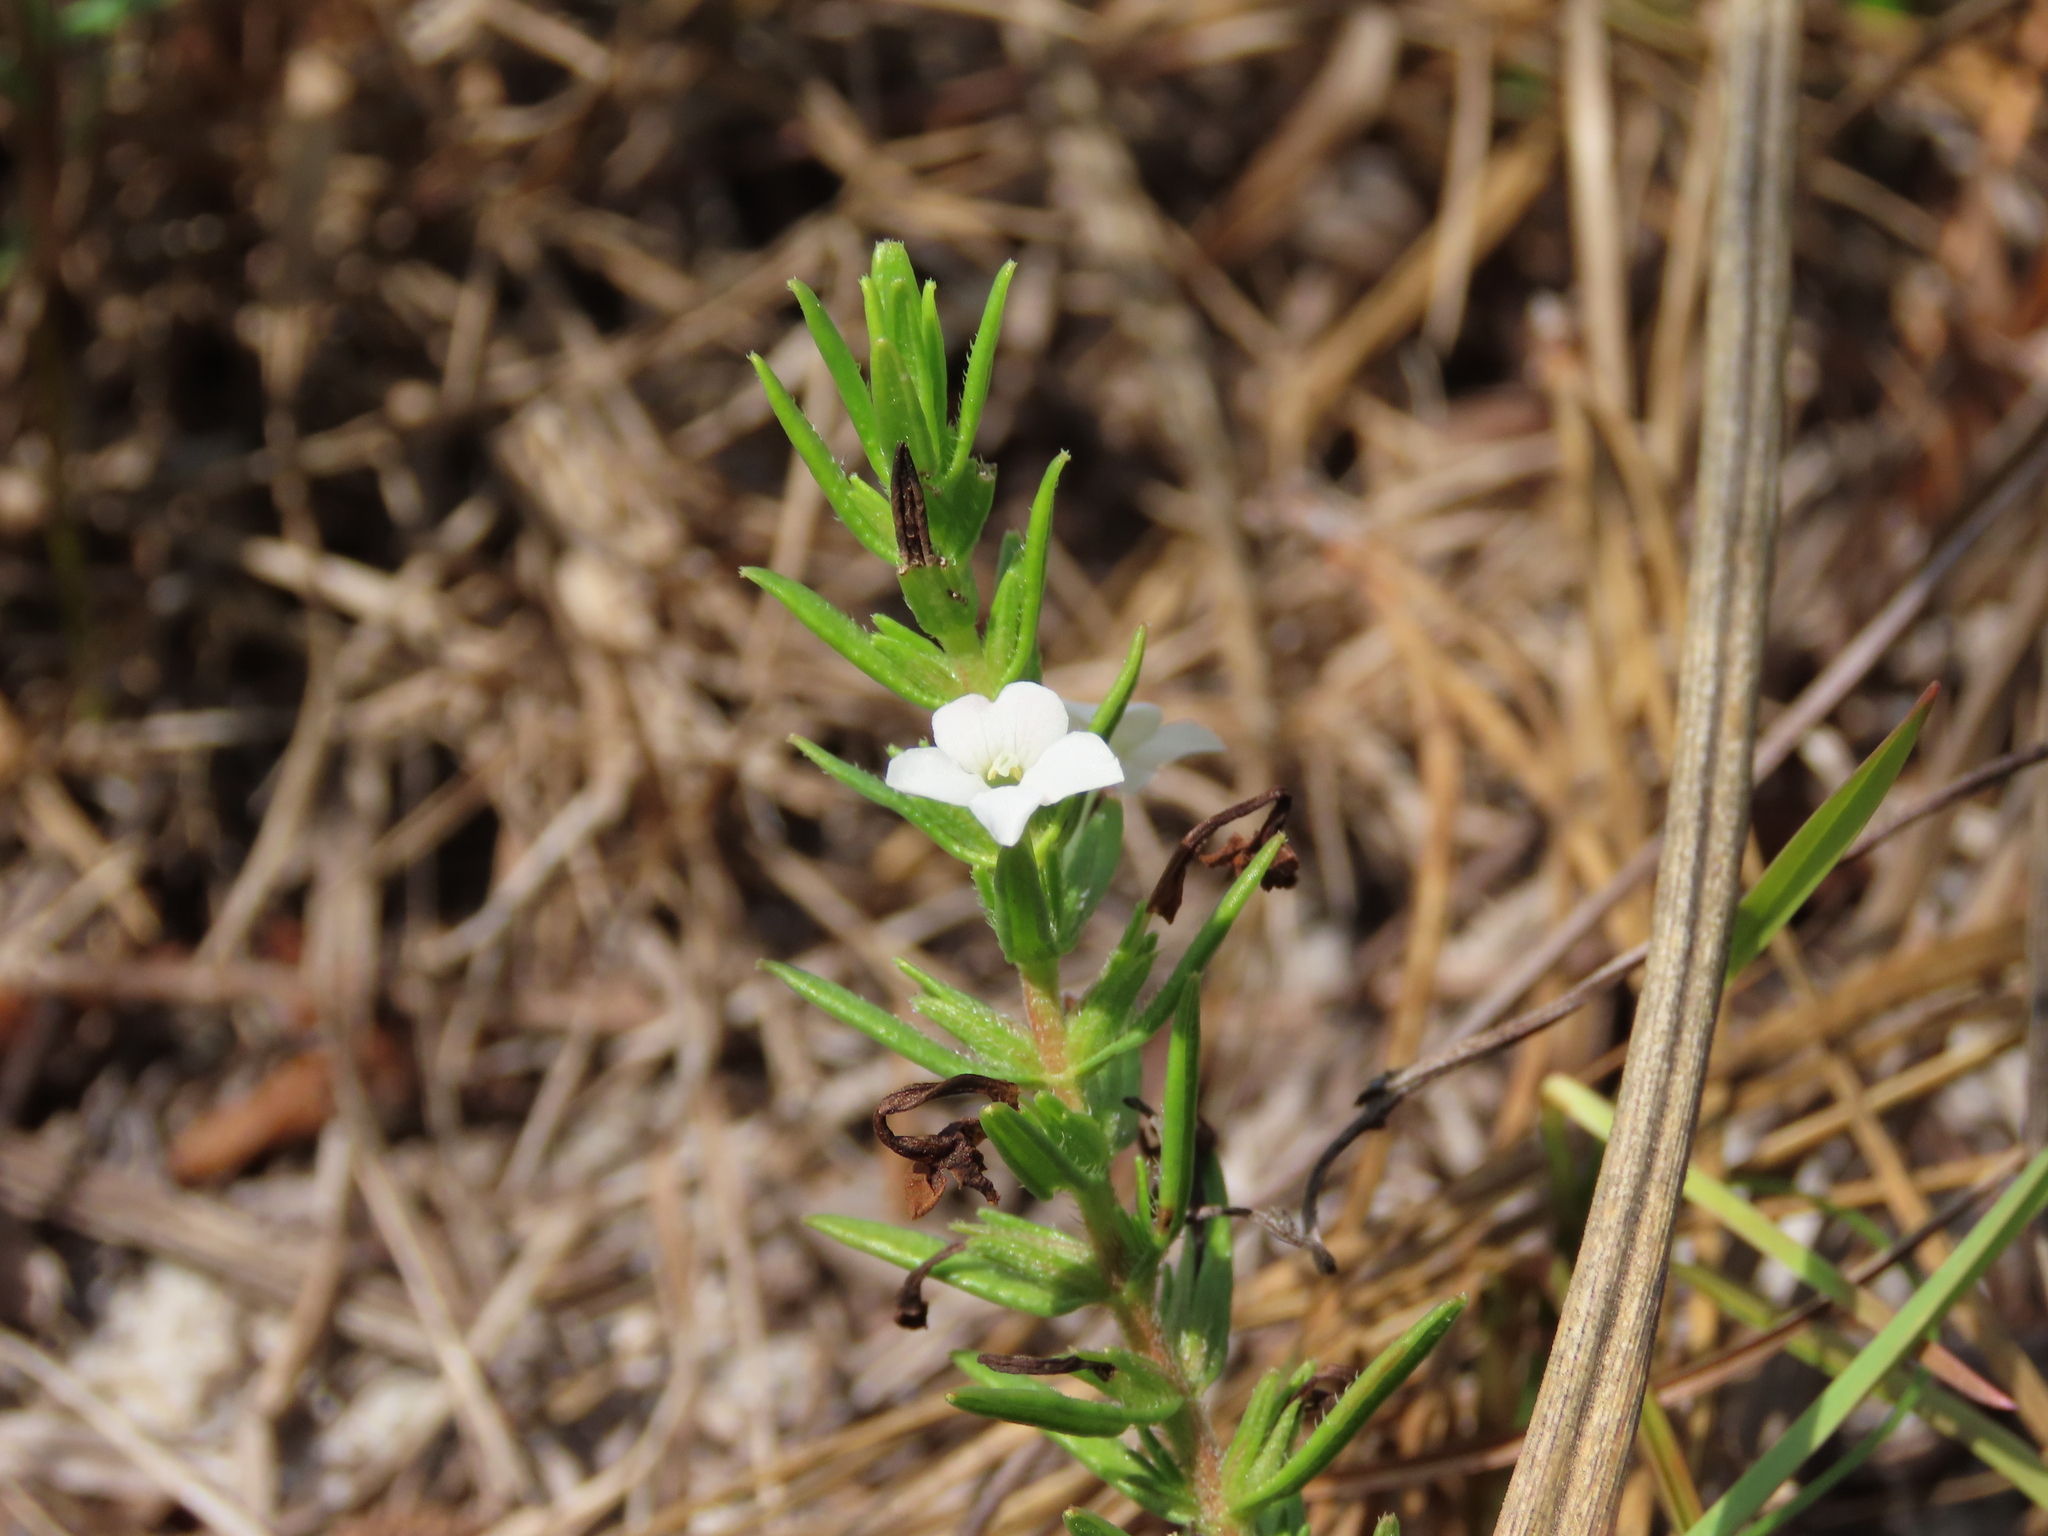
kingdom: Plantae
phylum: Tracheophyta
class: Magnoliopsida
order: Lamiales
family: Plantaginaceae
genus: Gratiola
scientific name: Gratiola hispida
